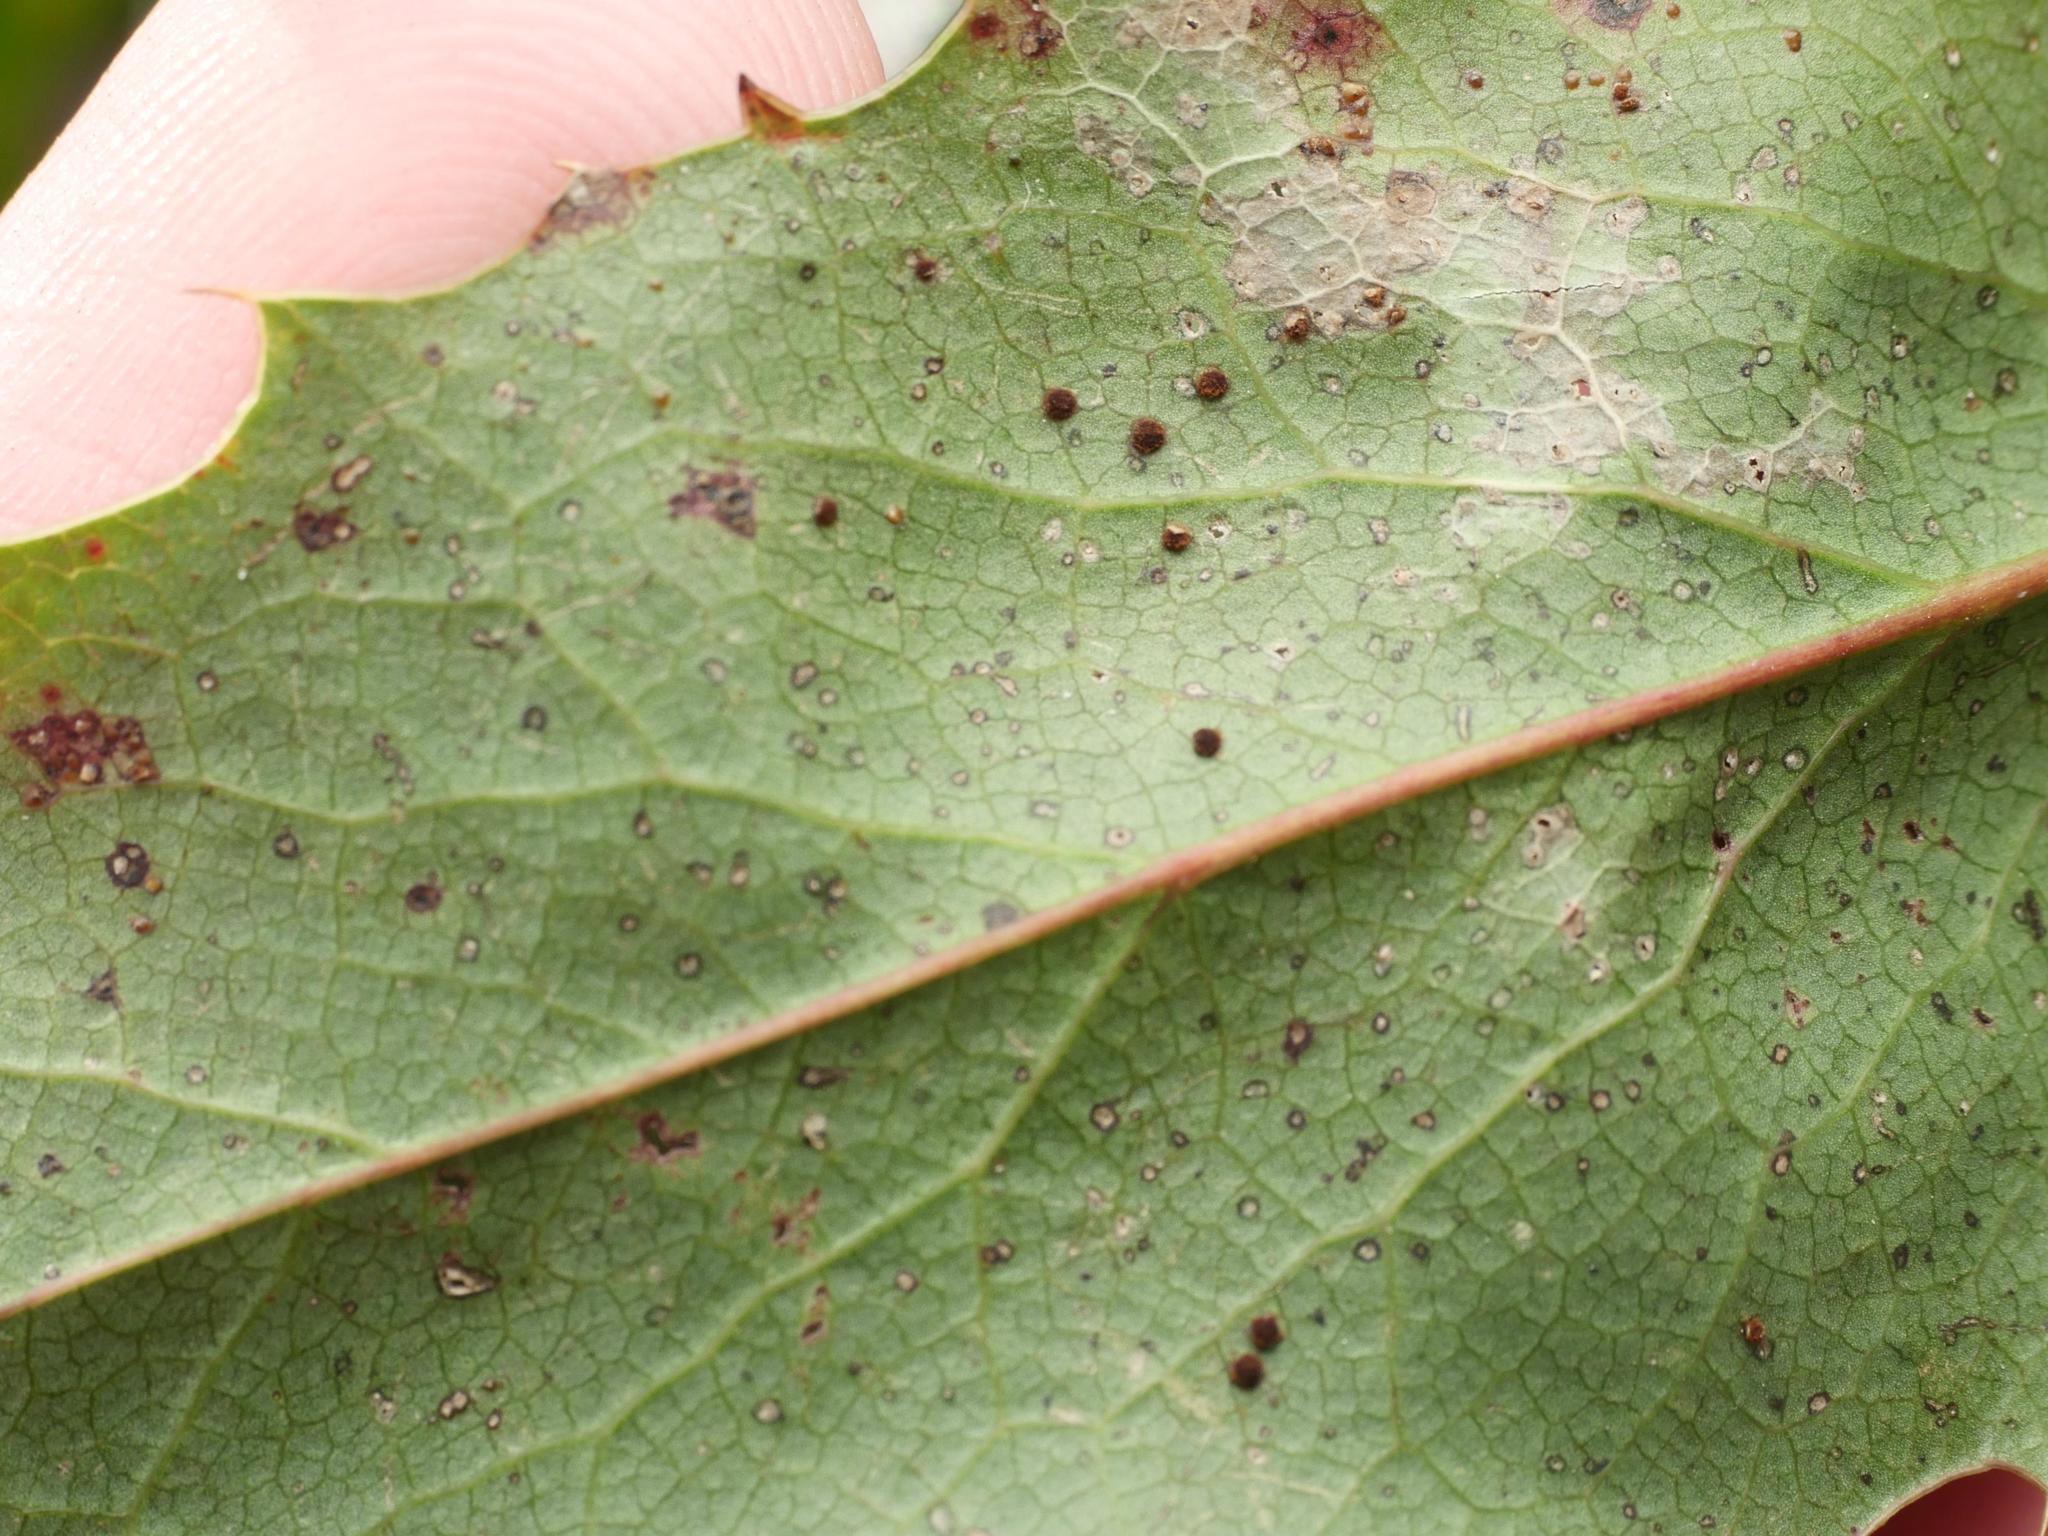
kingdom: Fungi
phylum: Basidiomycota
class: Pucciniomycetes
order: Pucciniales
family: Pucciniaceae
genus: Cumminsiella
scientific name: Cumminsiella mirabilissima
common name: Mahonia rust
